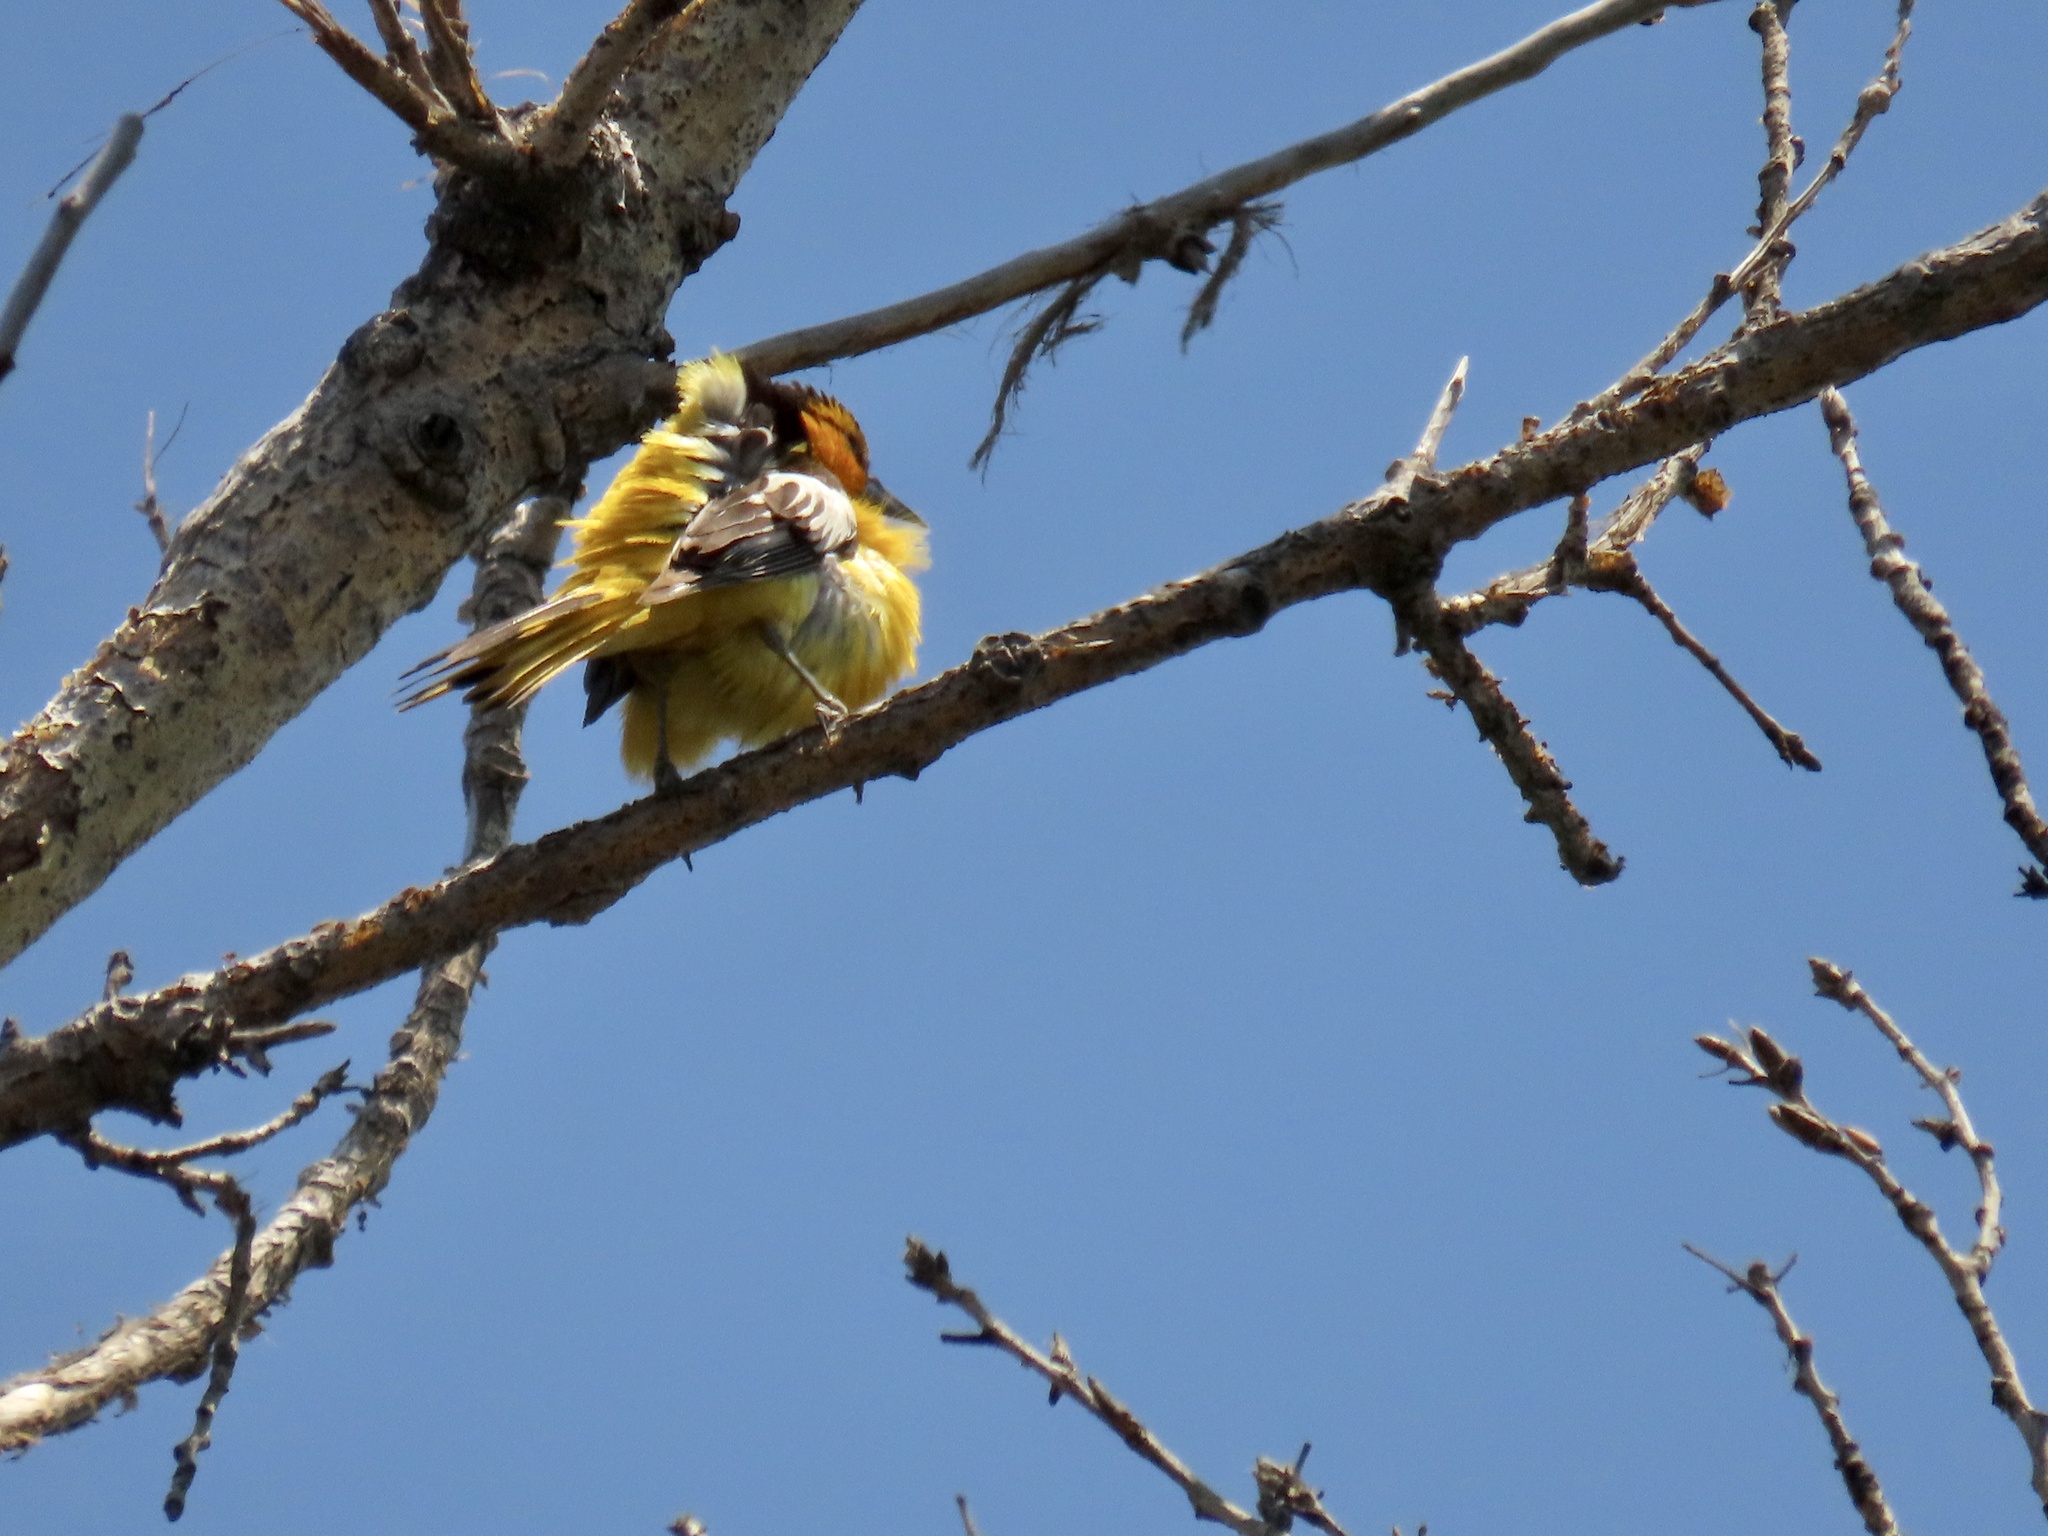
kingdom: Animalia
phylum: Chordata
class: Aves
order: Passeriformes
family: Icteridae
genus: Icterus
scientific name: Icterus bullockii
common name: Bullock's oriole
